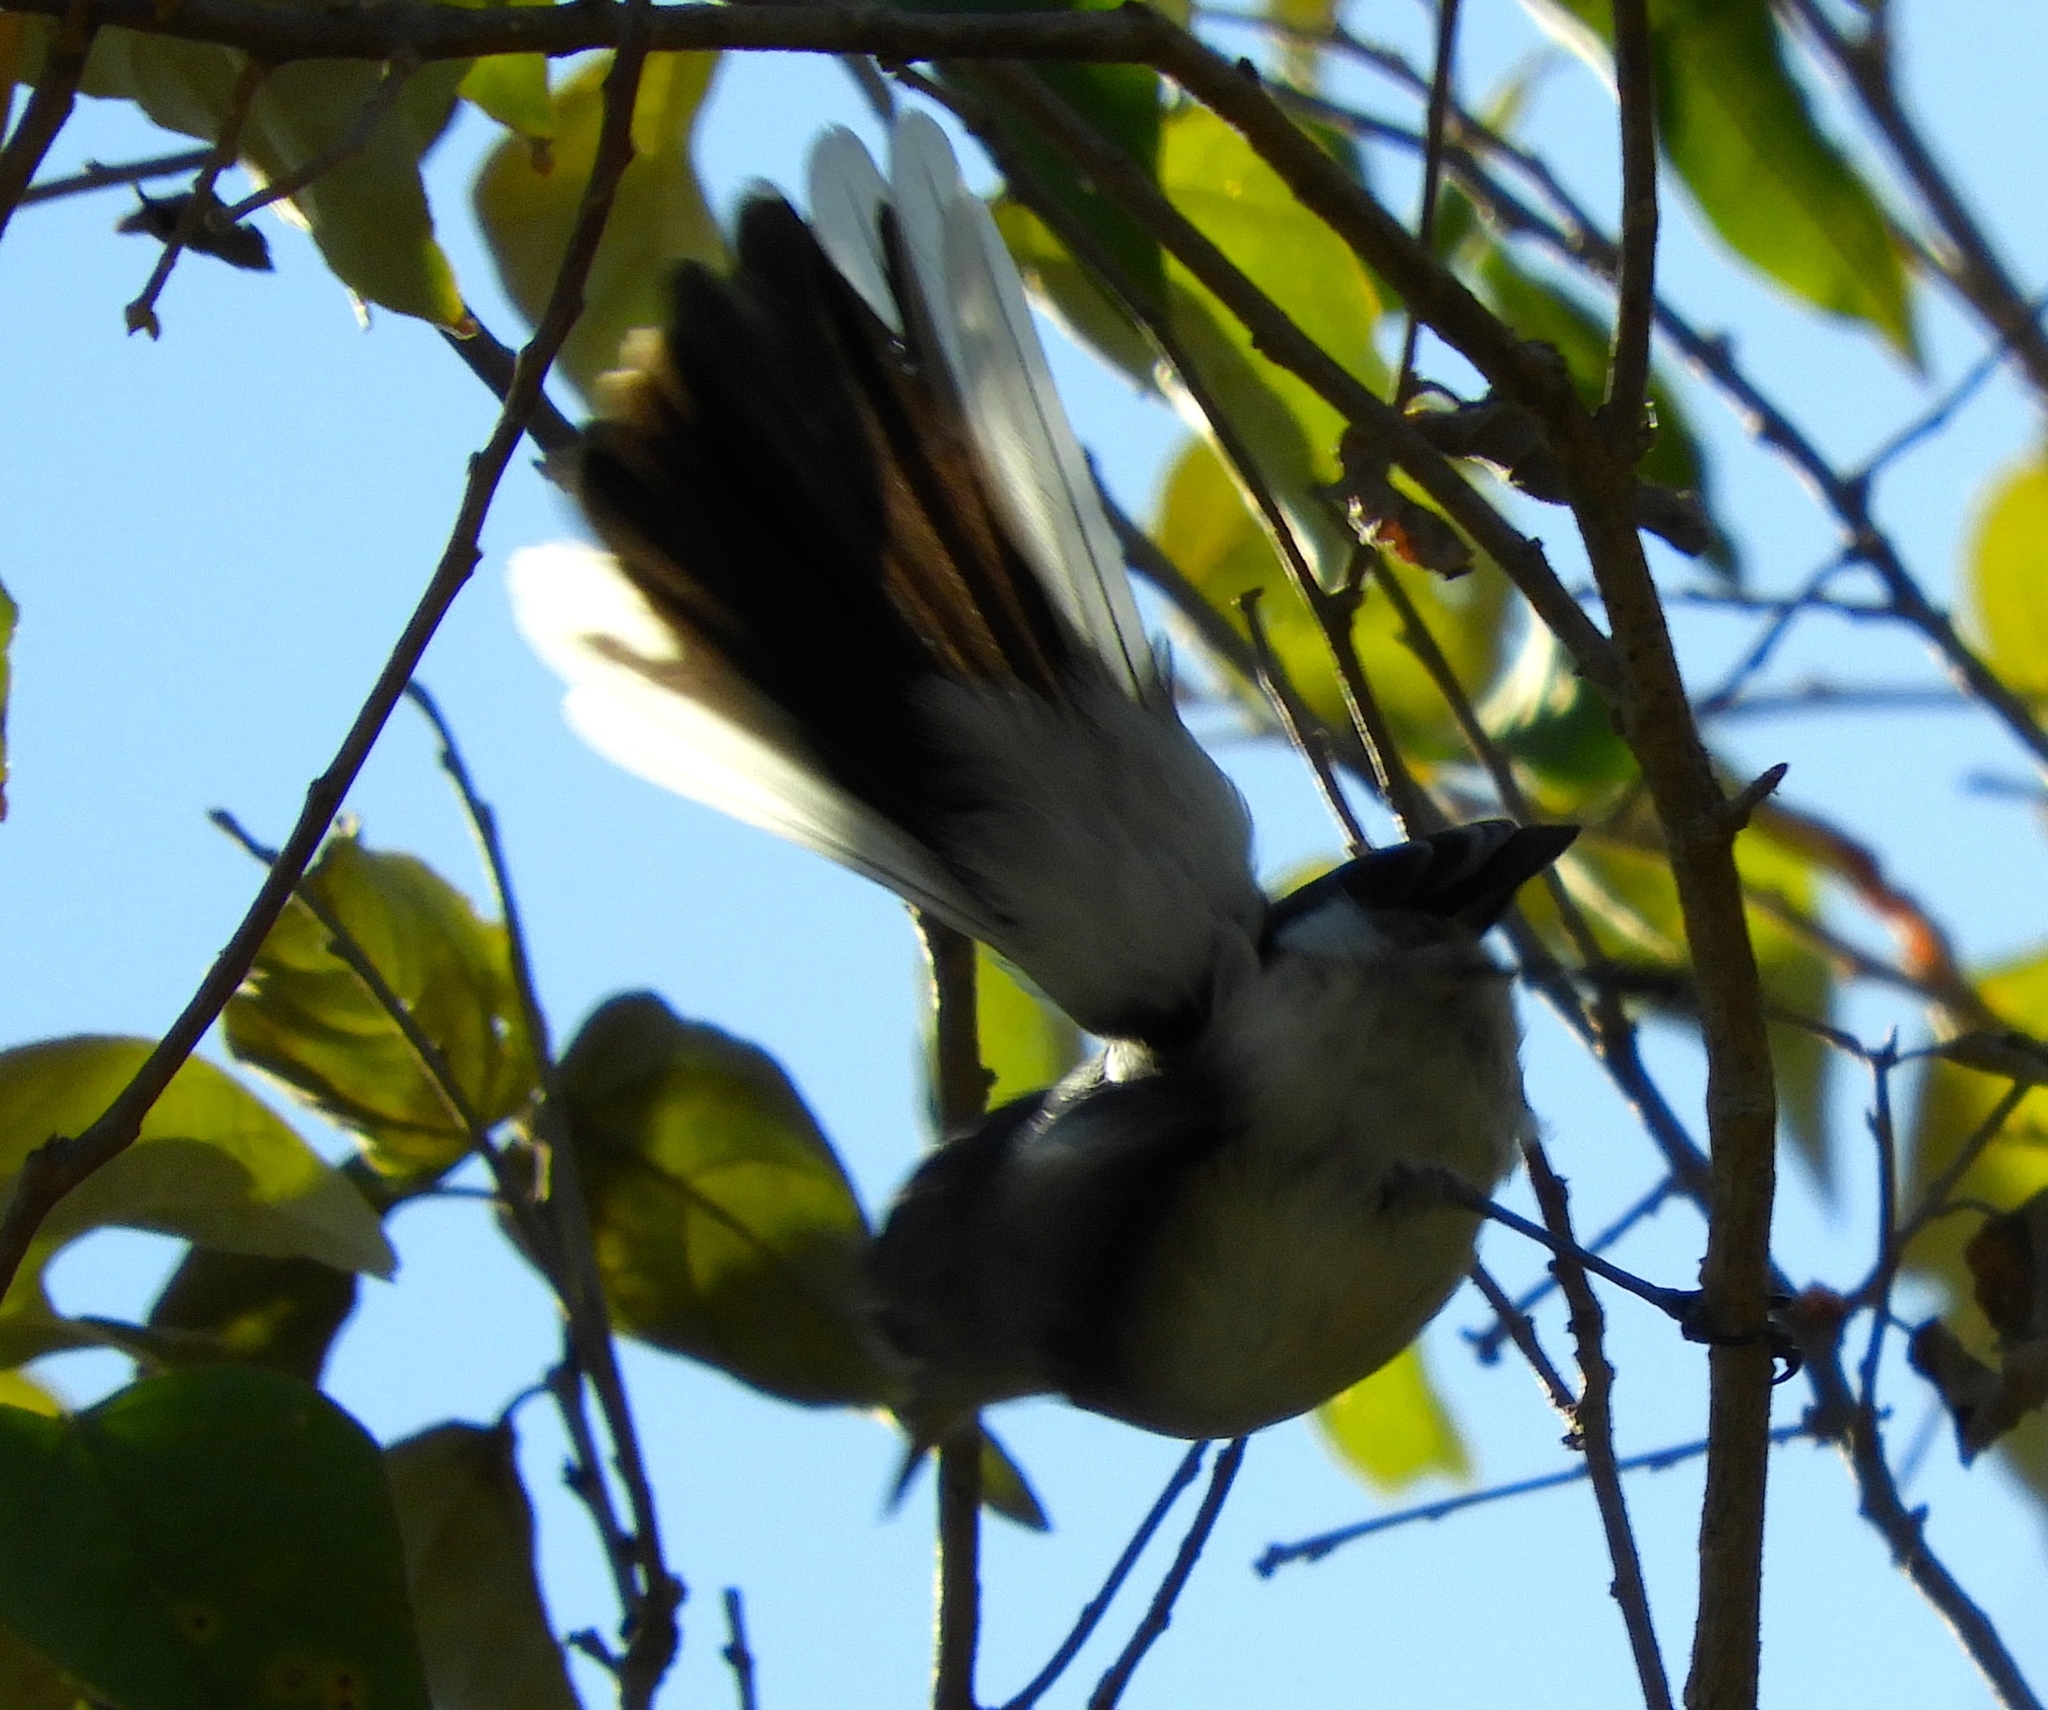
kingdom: Animalia
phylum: Chordata
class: Aves
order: Passeriformes
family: Polioptilidae
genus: Polioptila
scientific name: Polioptila caerulea
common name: Blue-gray gnatcatcher
